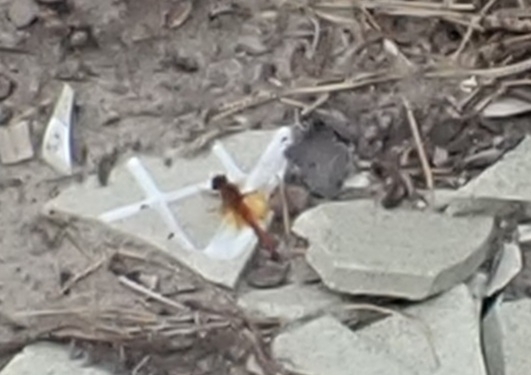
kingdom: Animalia
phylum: Arthropoda
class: Insecta
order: Odonata
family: Libellulidae
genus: Sympetrum
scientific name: Sympetrum flaveolum
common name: Yellow-winged darter
